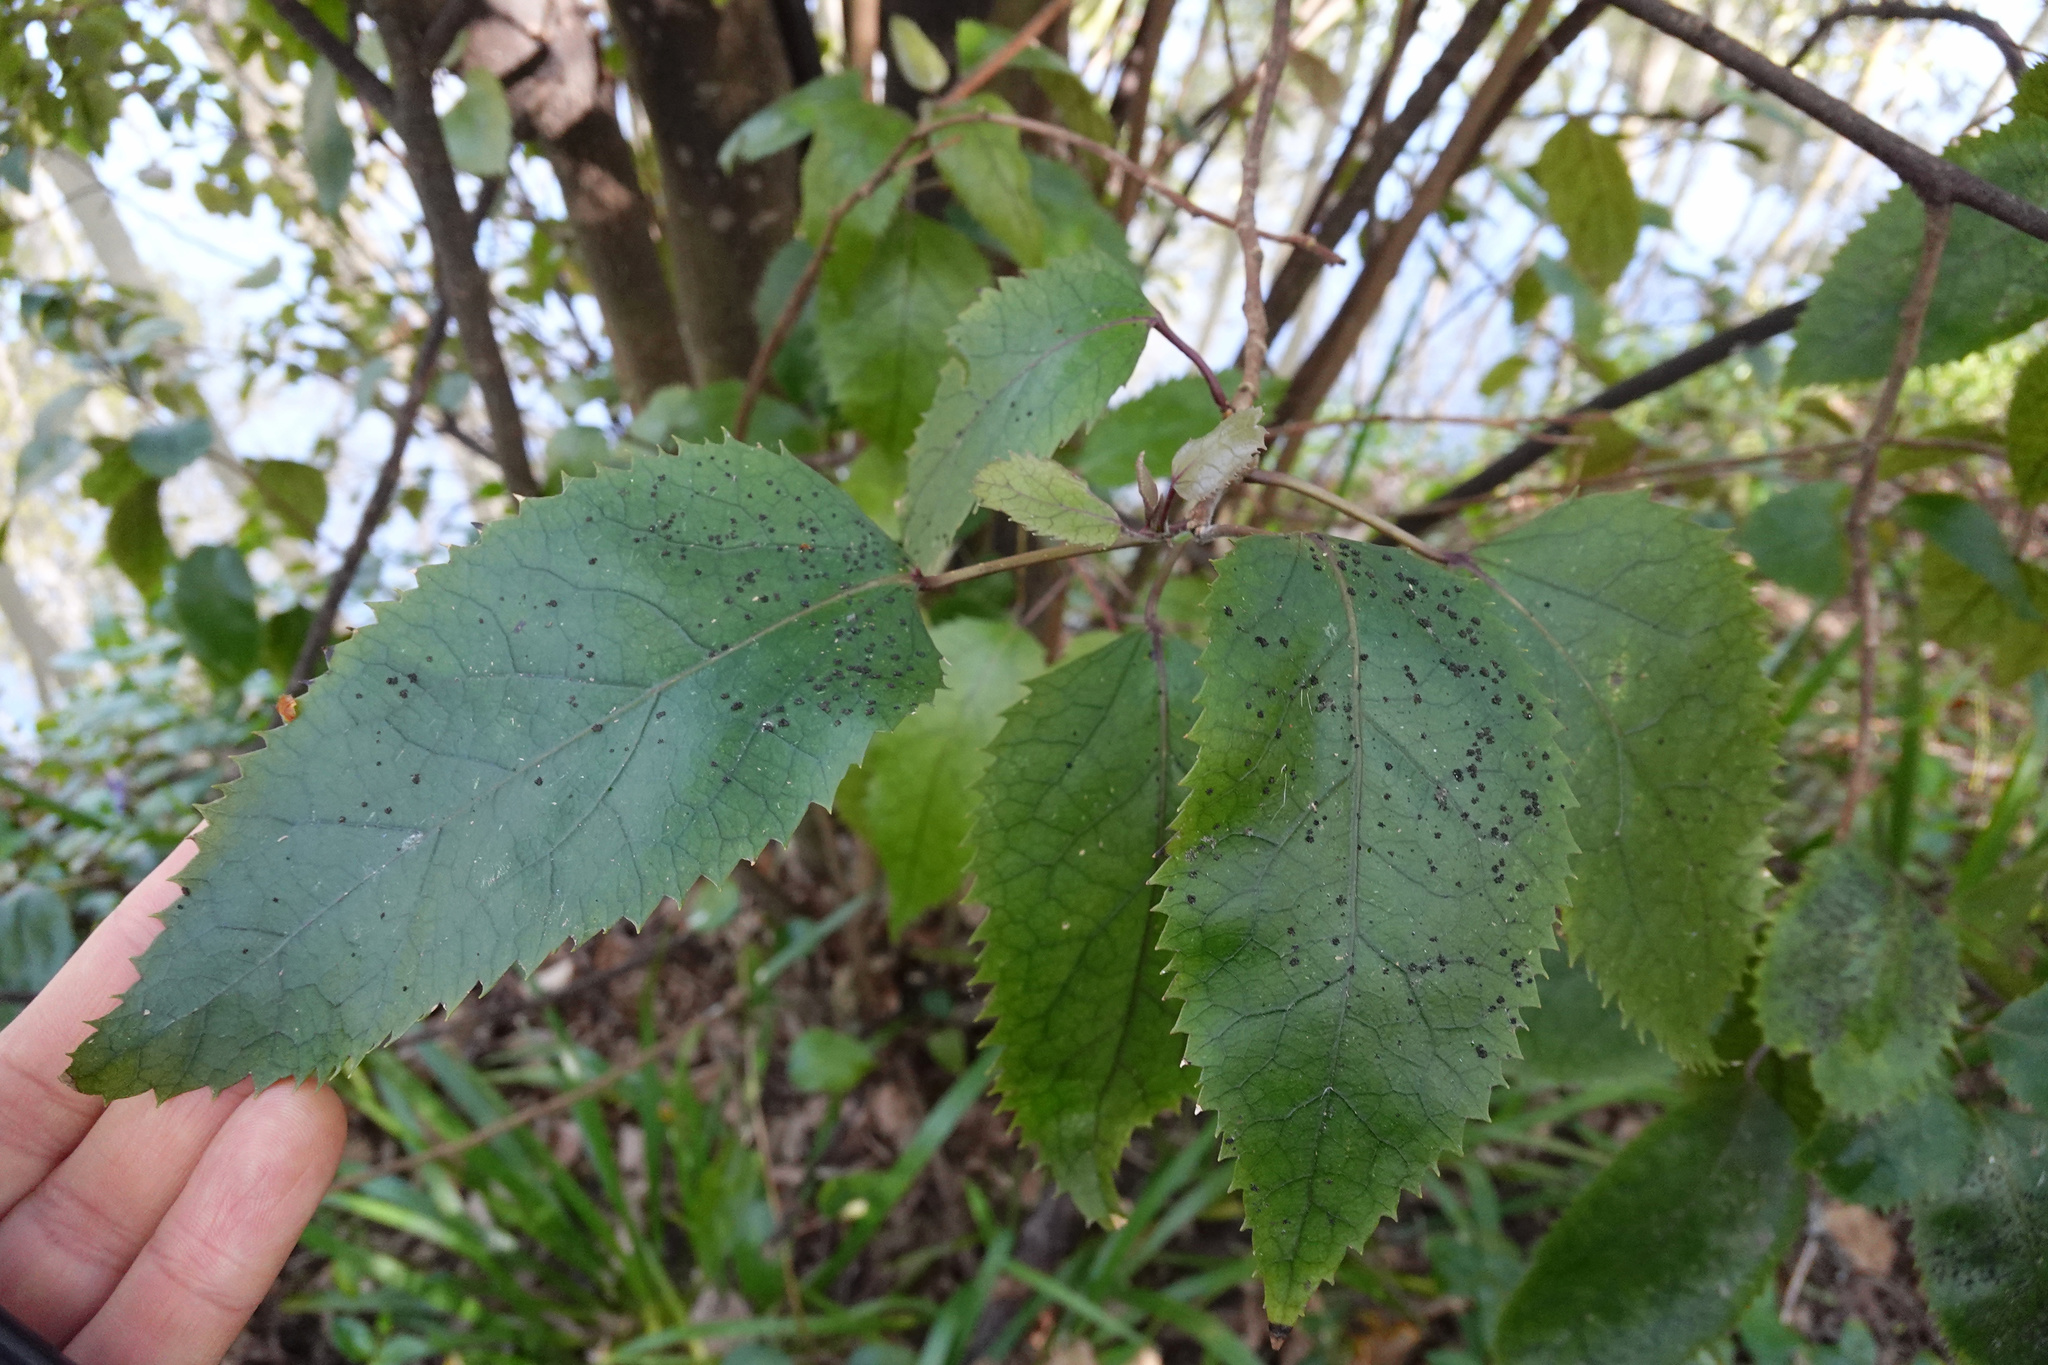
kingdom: Plantae
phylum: Tracheophyta
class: Magnoliopsida
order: Oxalidales
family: Elaeocarpaceae
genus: Aristotelia
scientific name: Aristotelia serrata
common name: New zealand wineberry
